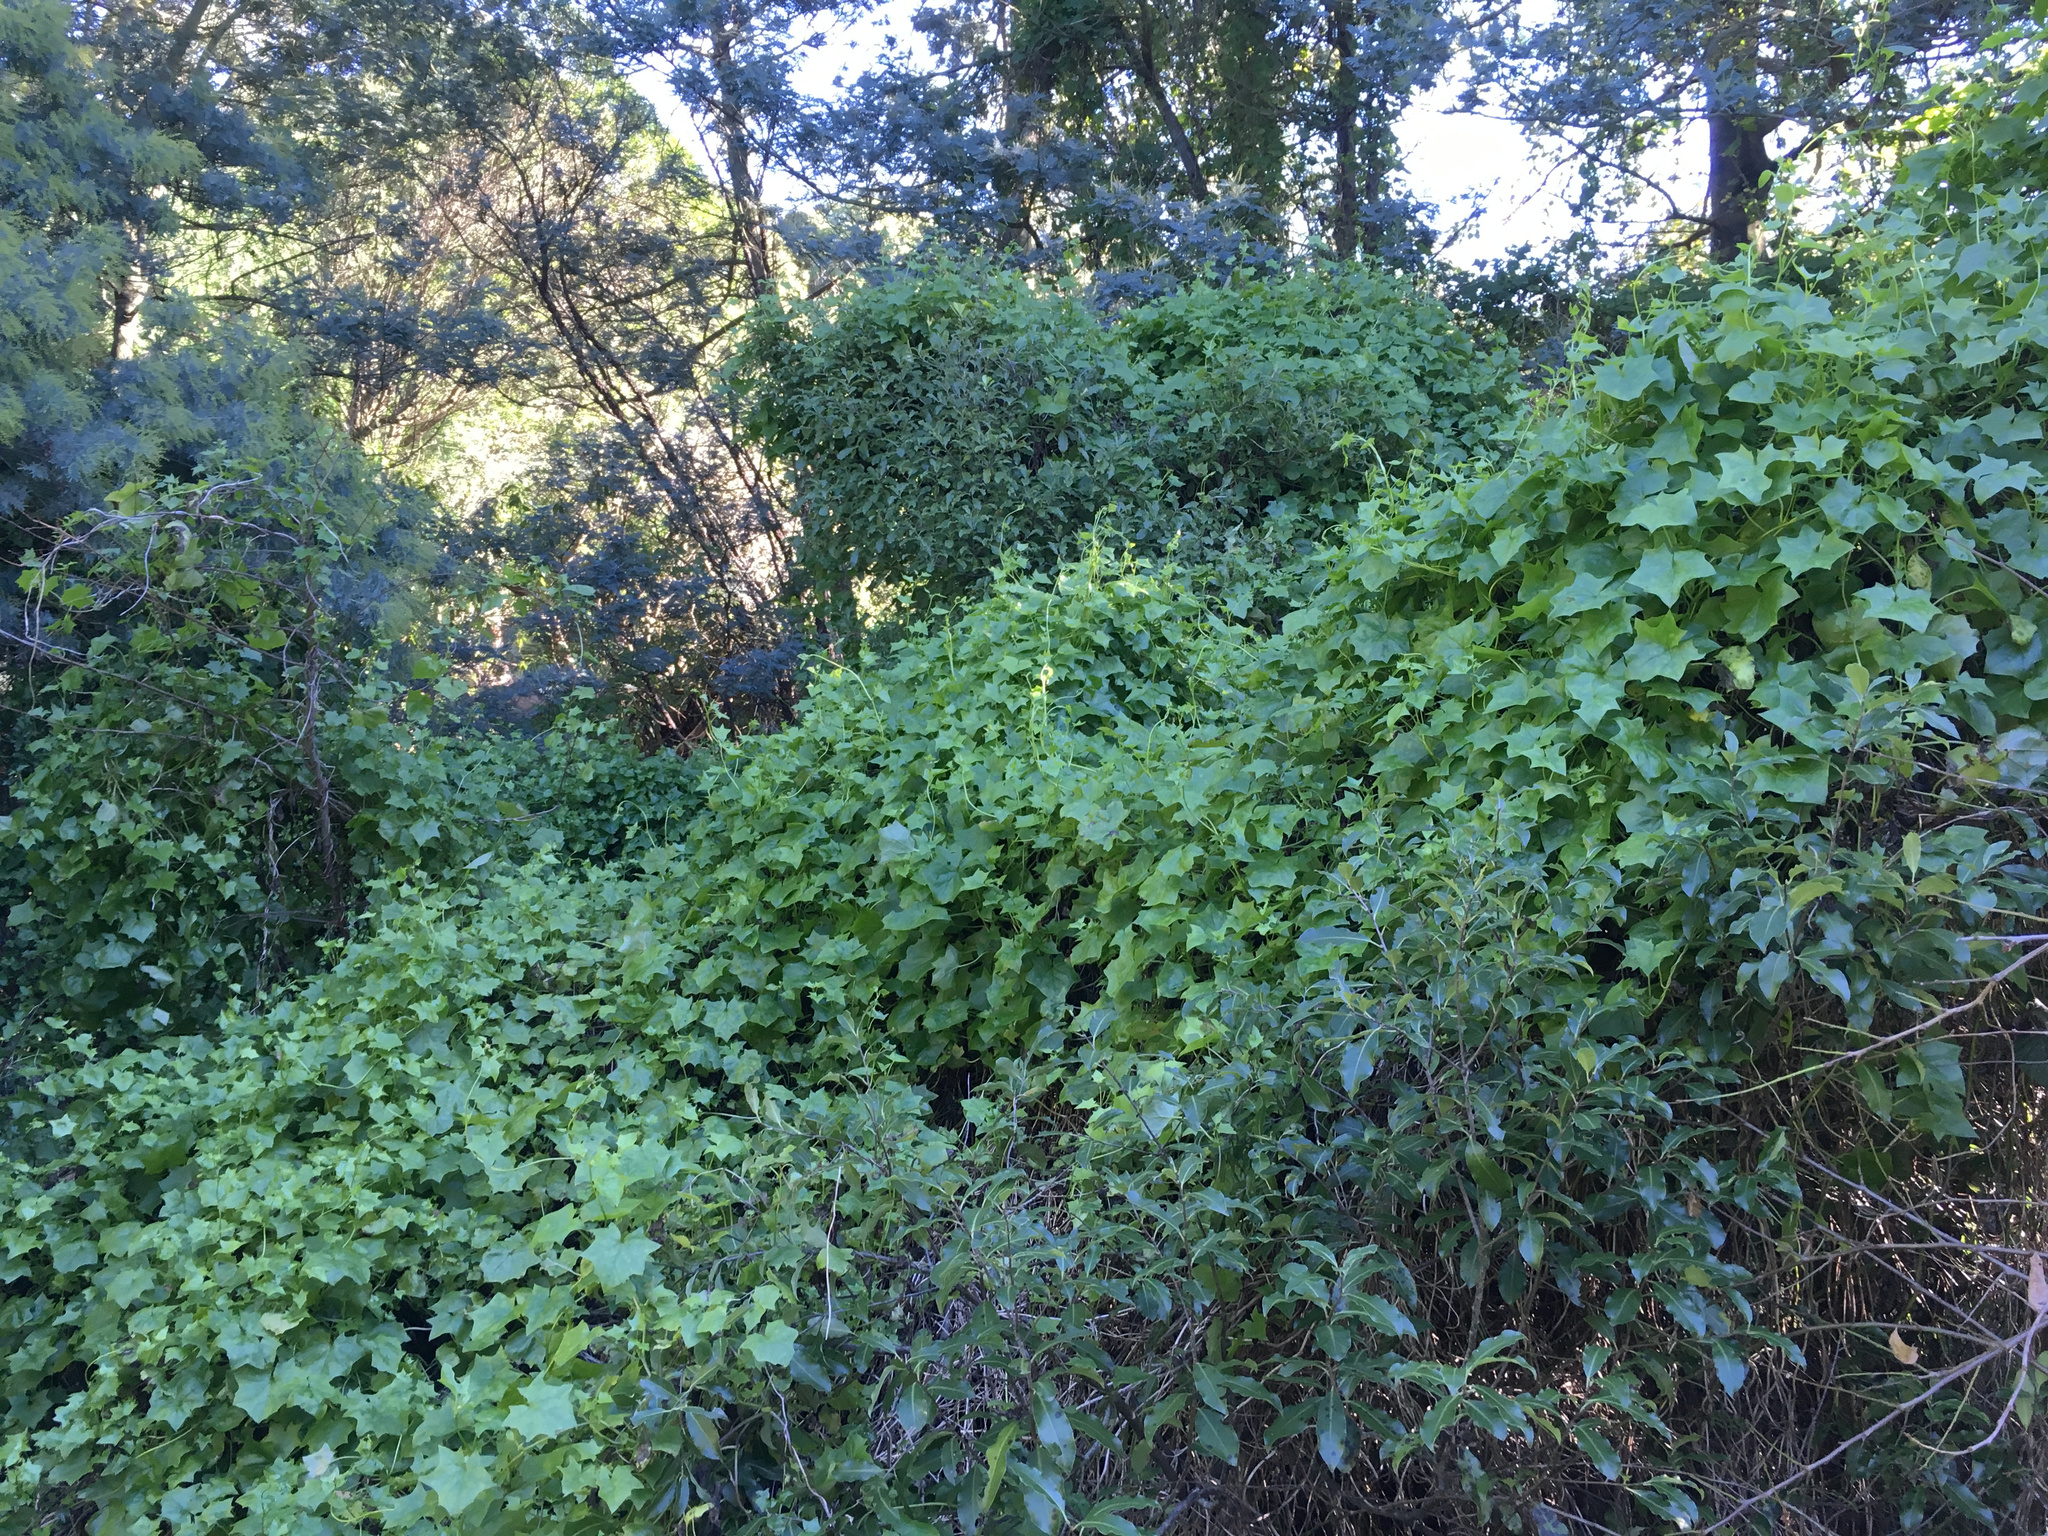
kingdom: Plantae
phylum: Tracheophyta
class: Magnoliopsida
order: Asterales
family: Asteraceae
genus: Delairea
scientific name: Delairea odorata
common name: Cape-ivy
